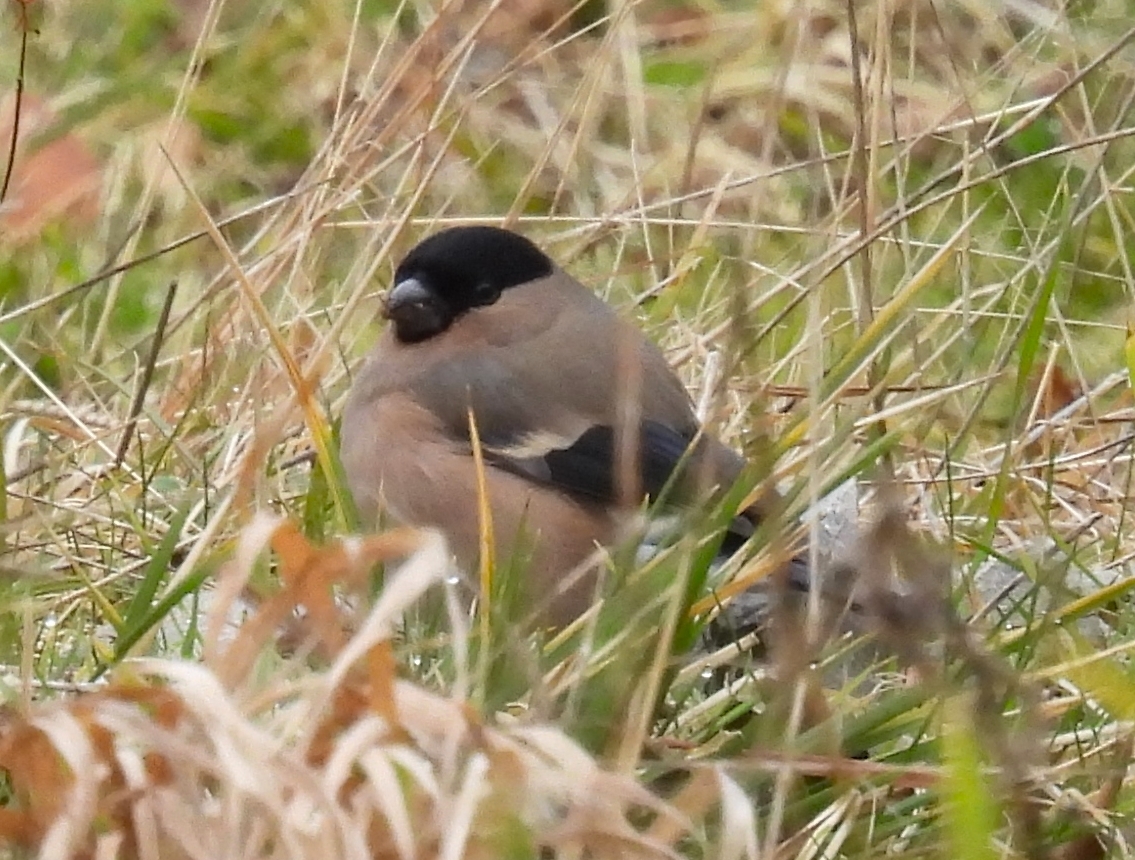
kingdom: Animalia
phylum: Chordata
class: Aves
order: Passeriformes
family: Fringillidae
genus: Pyrrhula
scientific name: Pyrrhula pyrrhula
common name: Eurasian bullfinch
